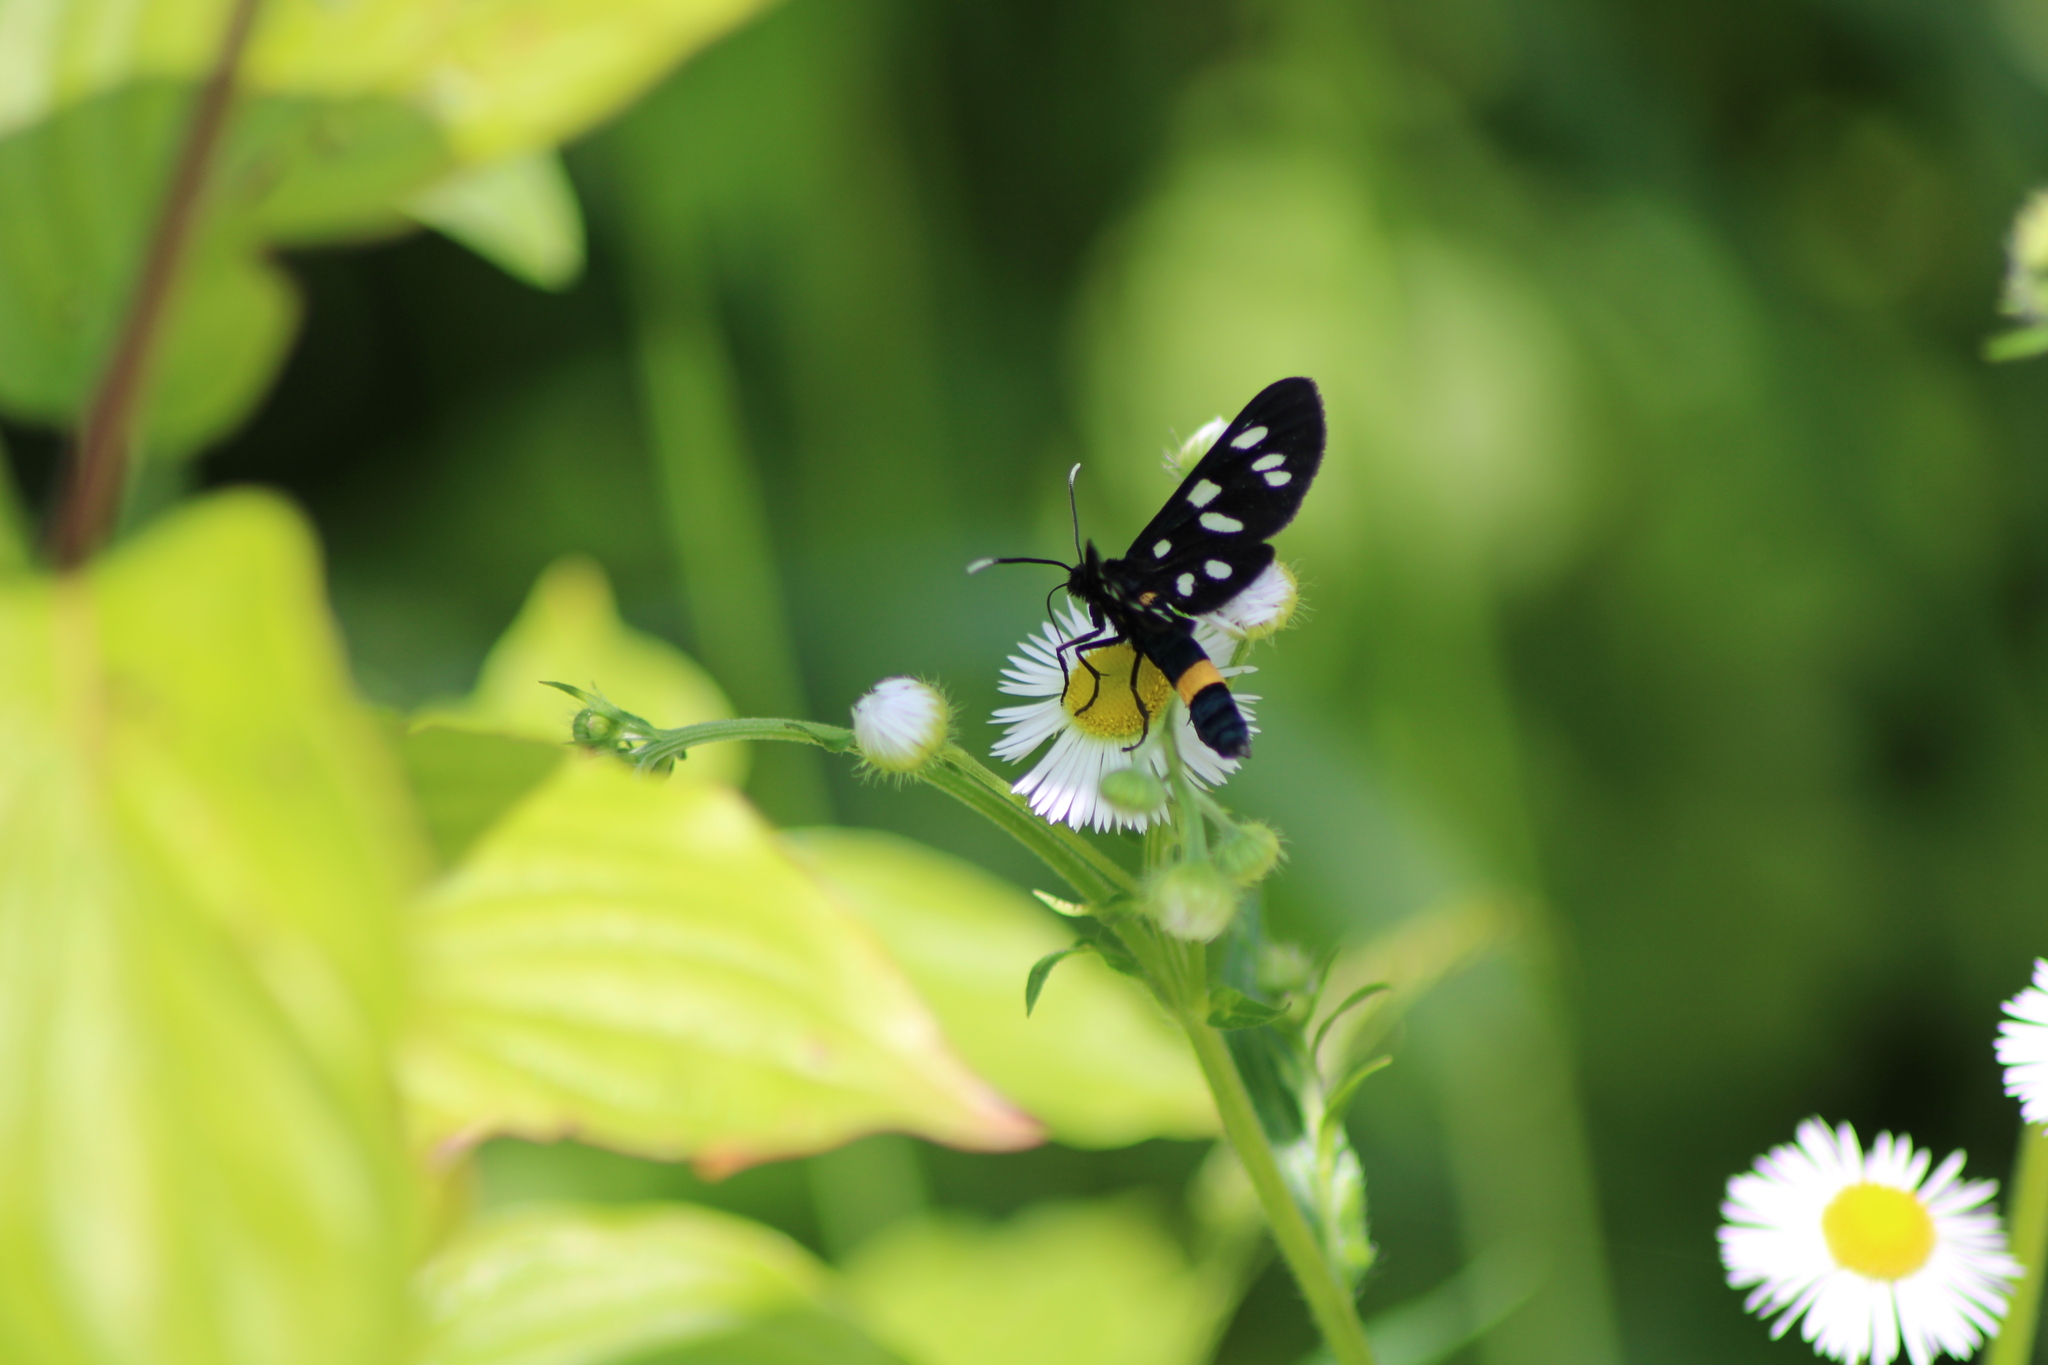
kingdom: Animalia
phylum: Arthropoda
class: Insecta
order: Lepidoptera
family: Erebidae
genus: Amata
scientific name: Amata phegea
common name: Nine-spotted
